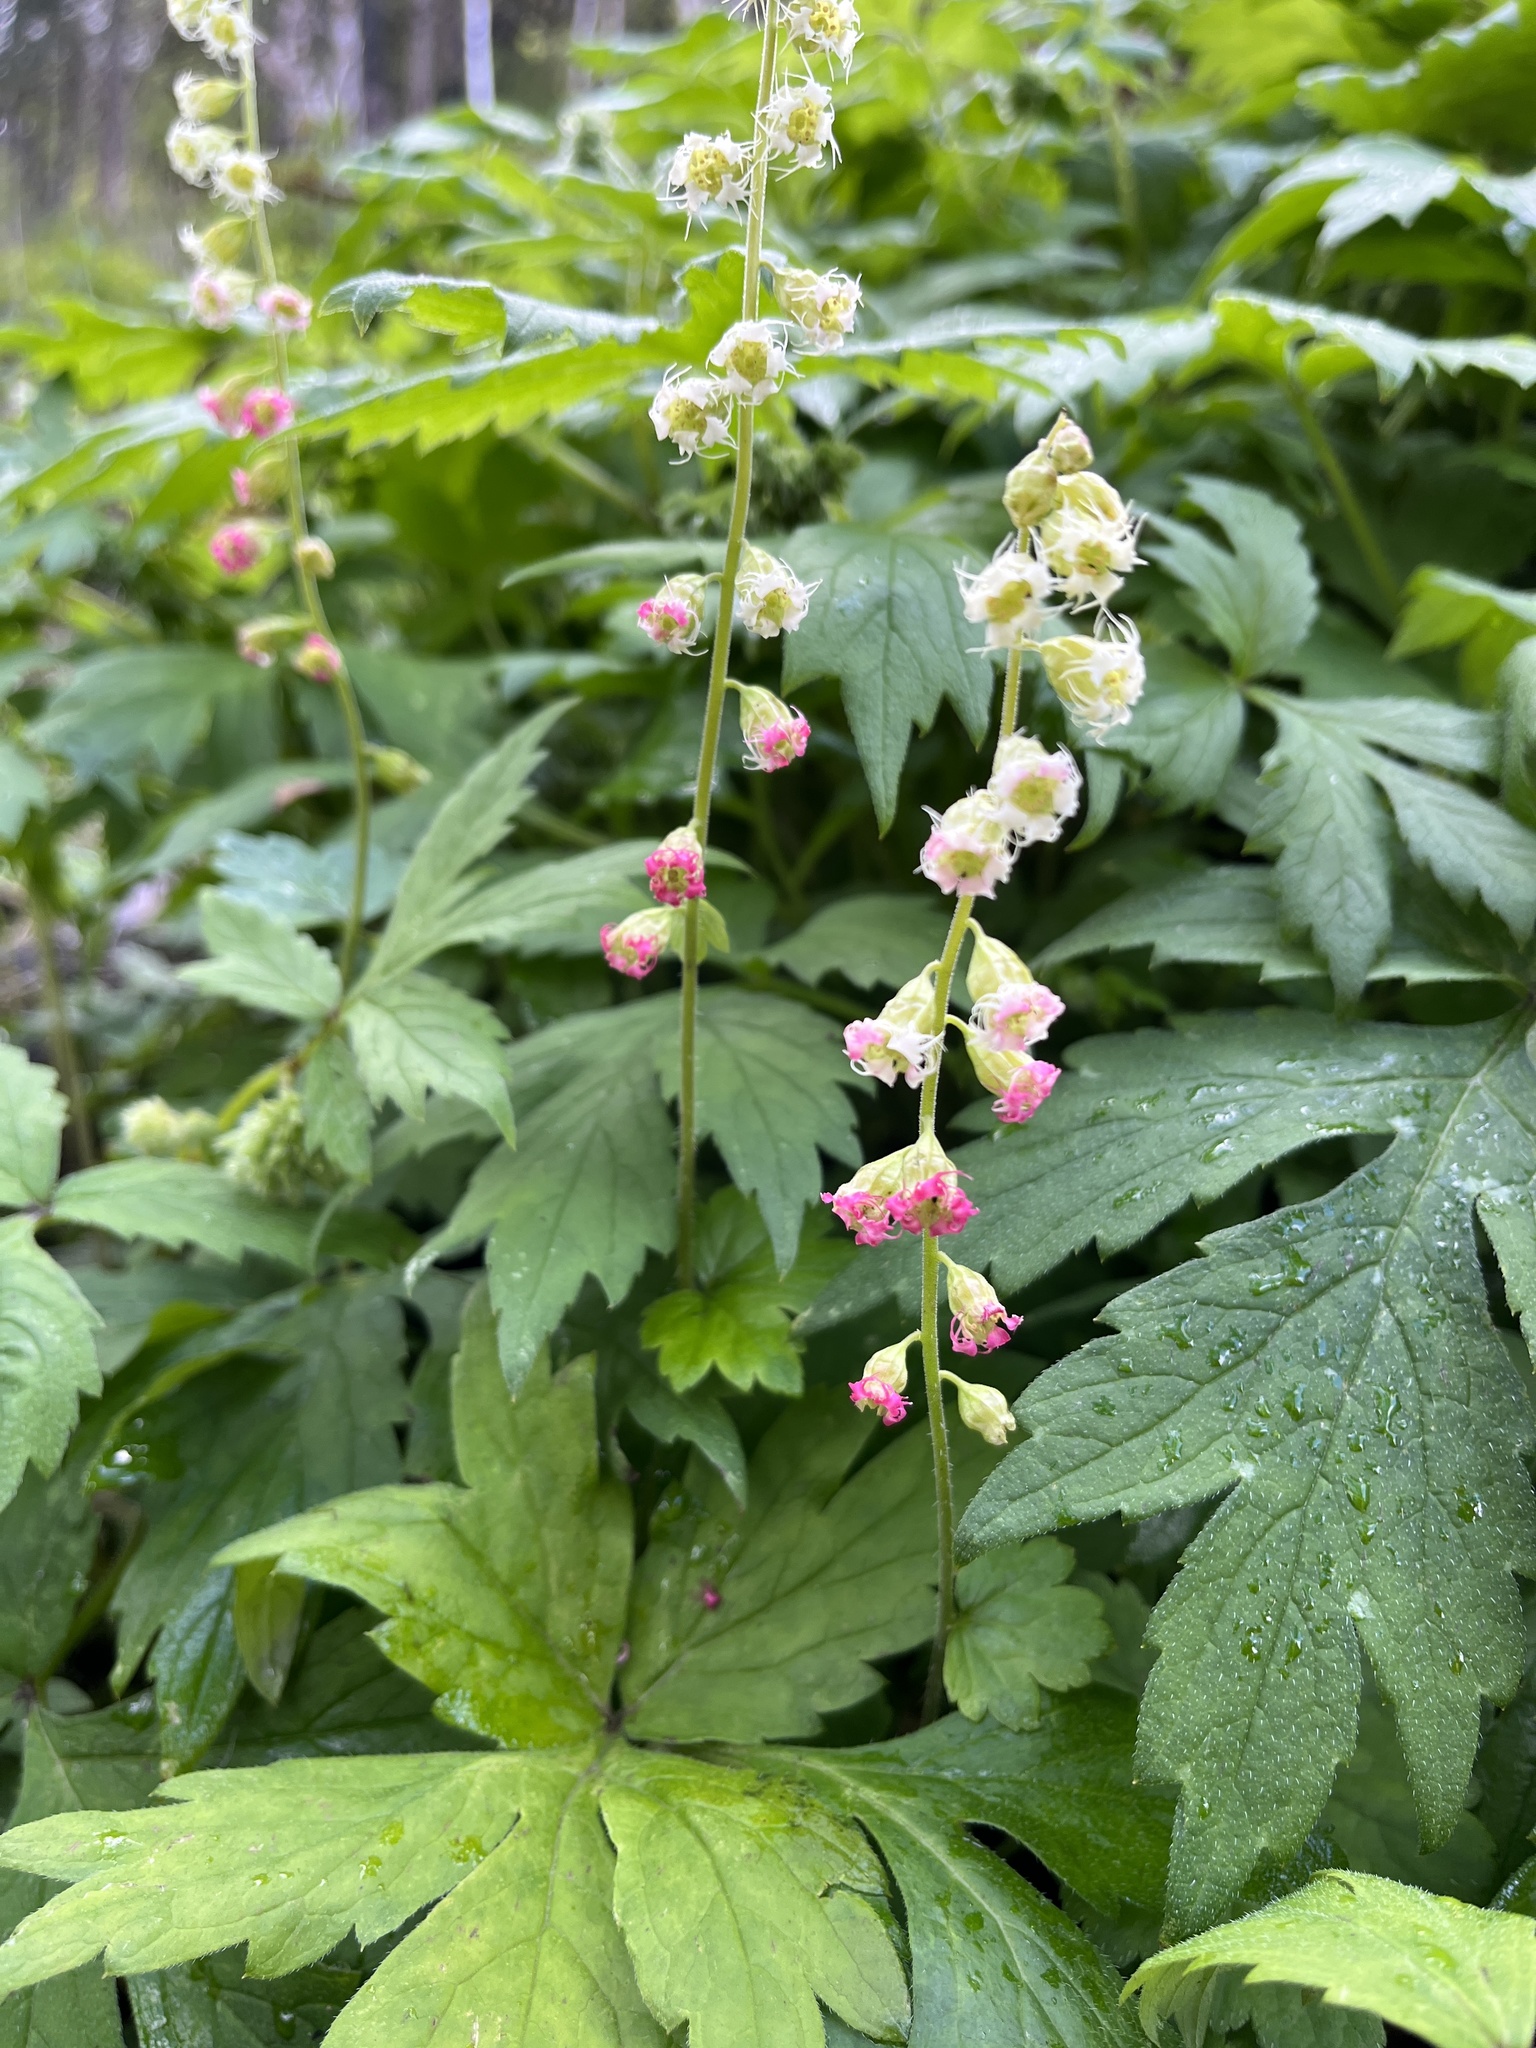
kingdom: Plantae
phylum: Tracheophyta
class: Magnoliopsida
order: Saxifragales
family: Saxifragaceae
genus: Tellima
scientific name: Tellima grandiflora
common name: Fringecups
